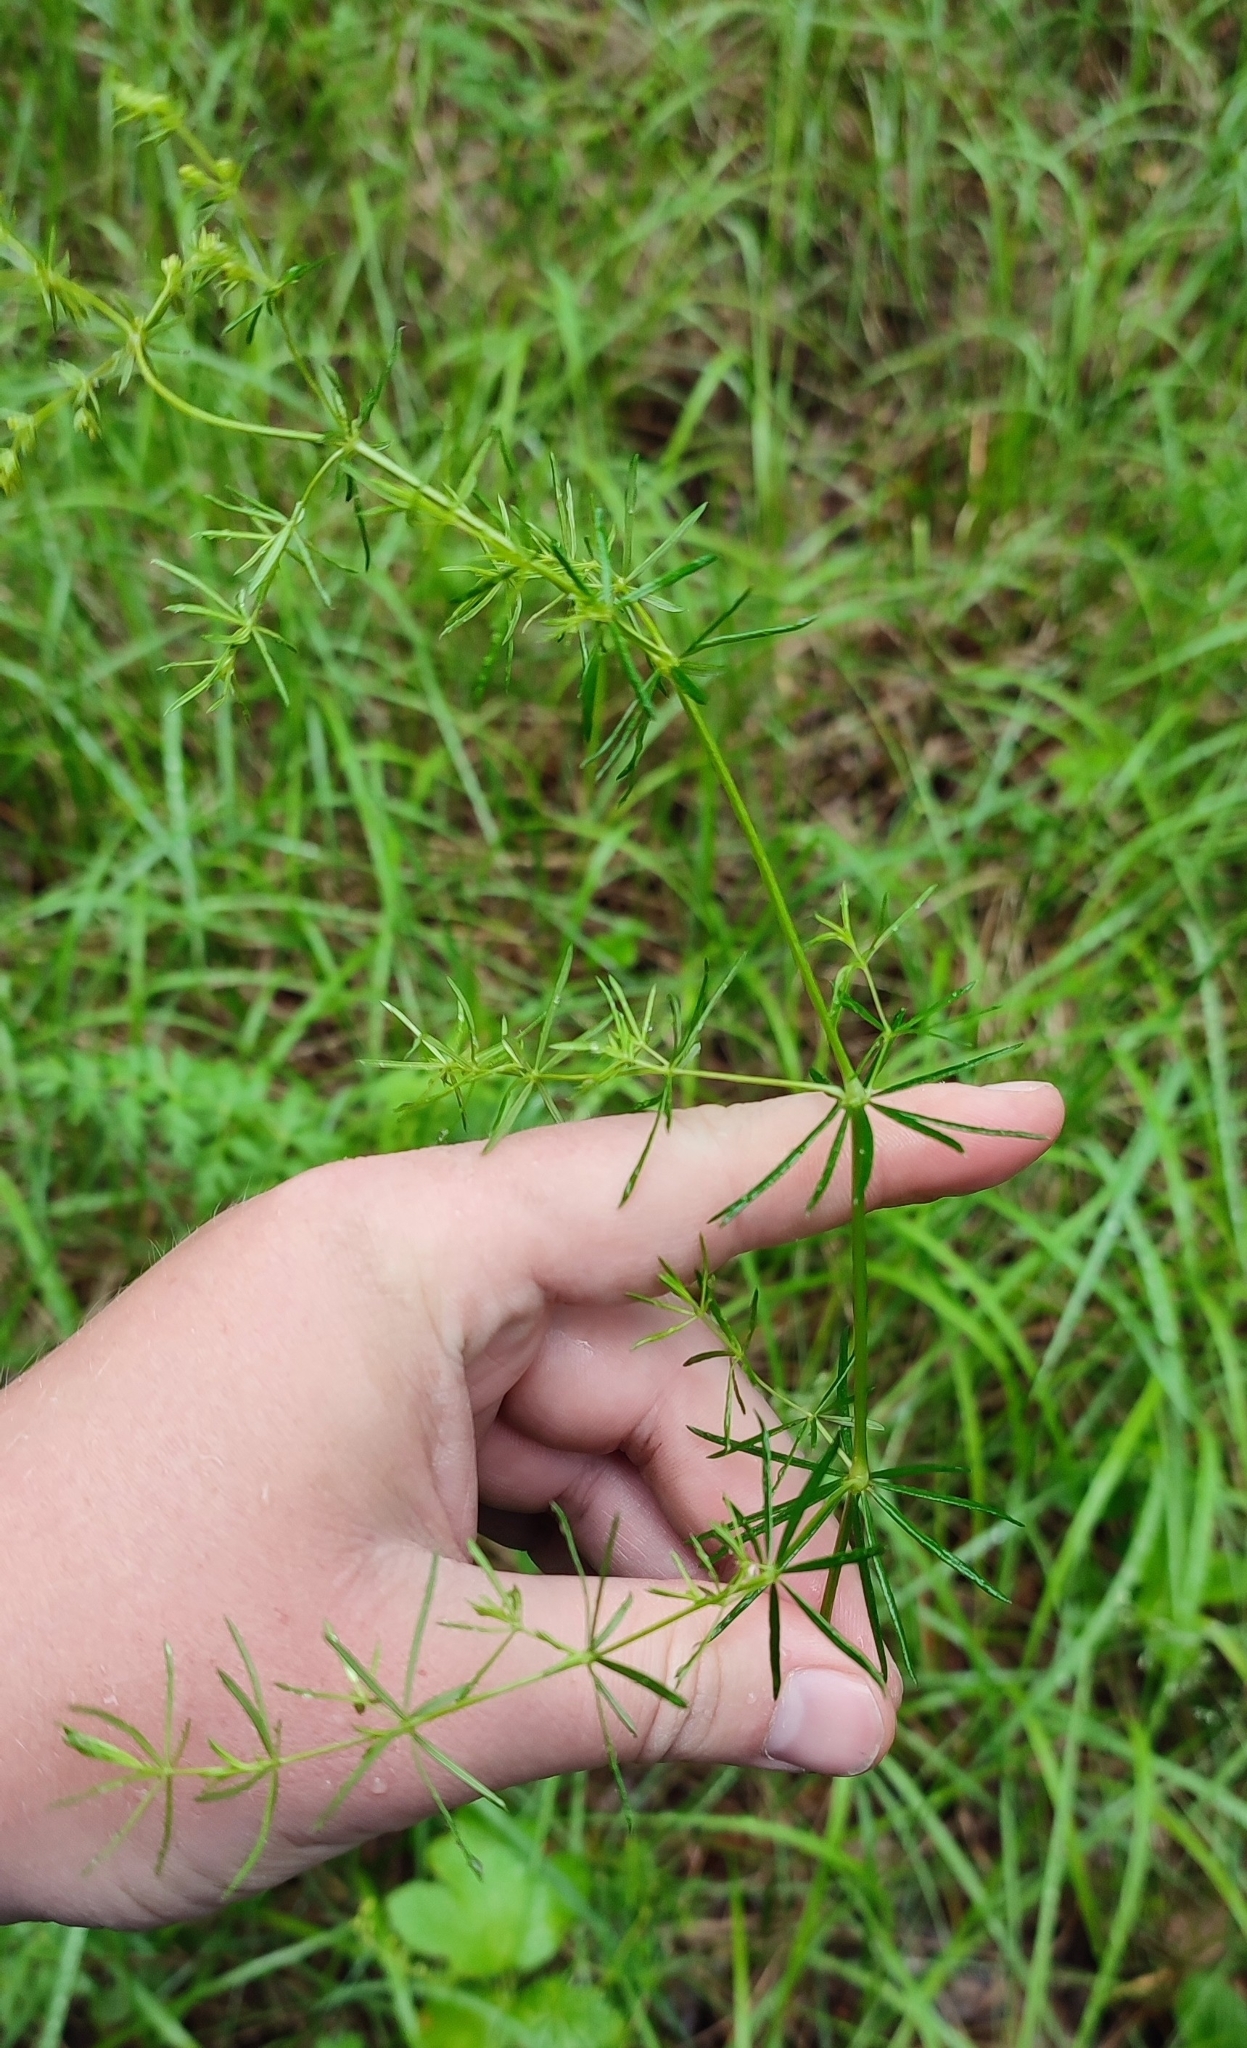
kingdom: Plantae
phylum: Tracheophyta
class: Magnoliopsida
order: Gentianales
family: Rubiaceae
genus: Galium
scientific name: Galium verum
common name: Lady's bedstraw
